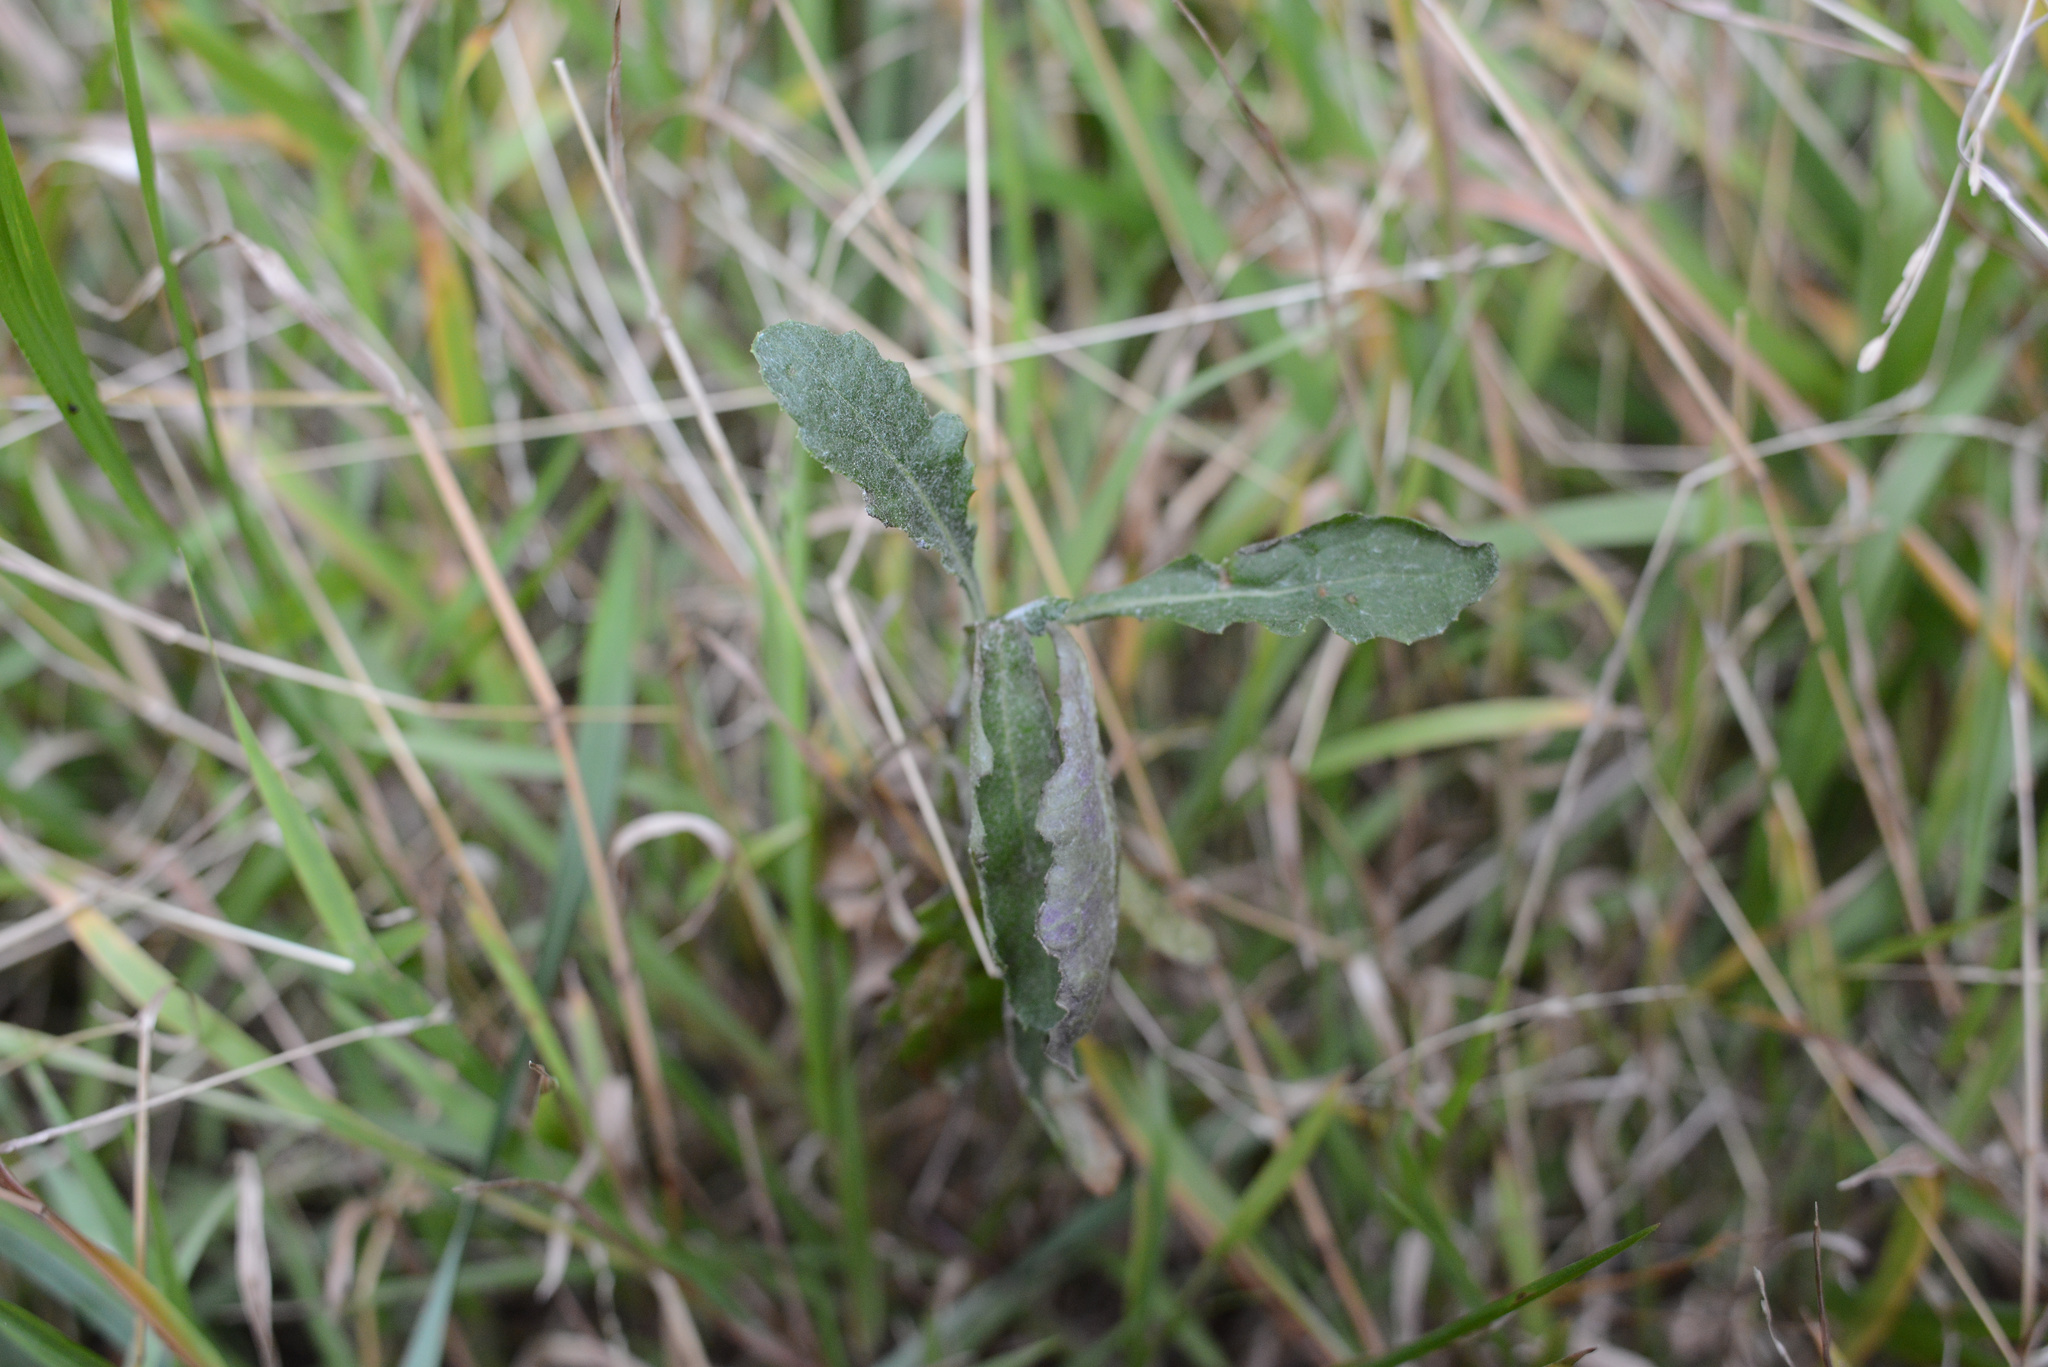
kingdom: Plantae
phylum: Tracheophyta
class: Magnoliopsida
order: Asterales
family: Asteraceae
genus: Senecio
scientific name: Senecio glomeratus
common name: Cutleaf burnweed
